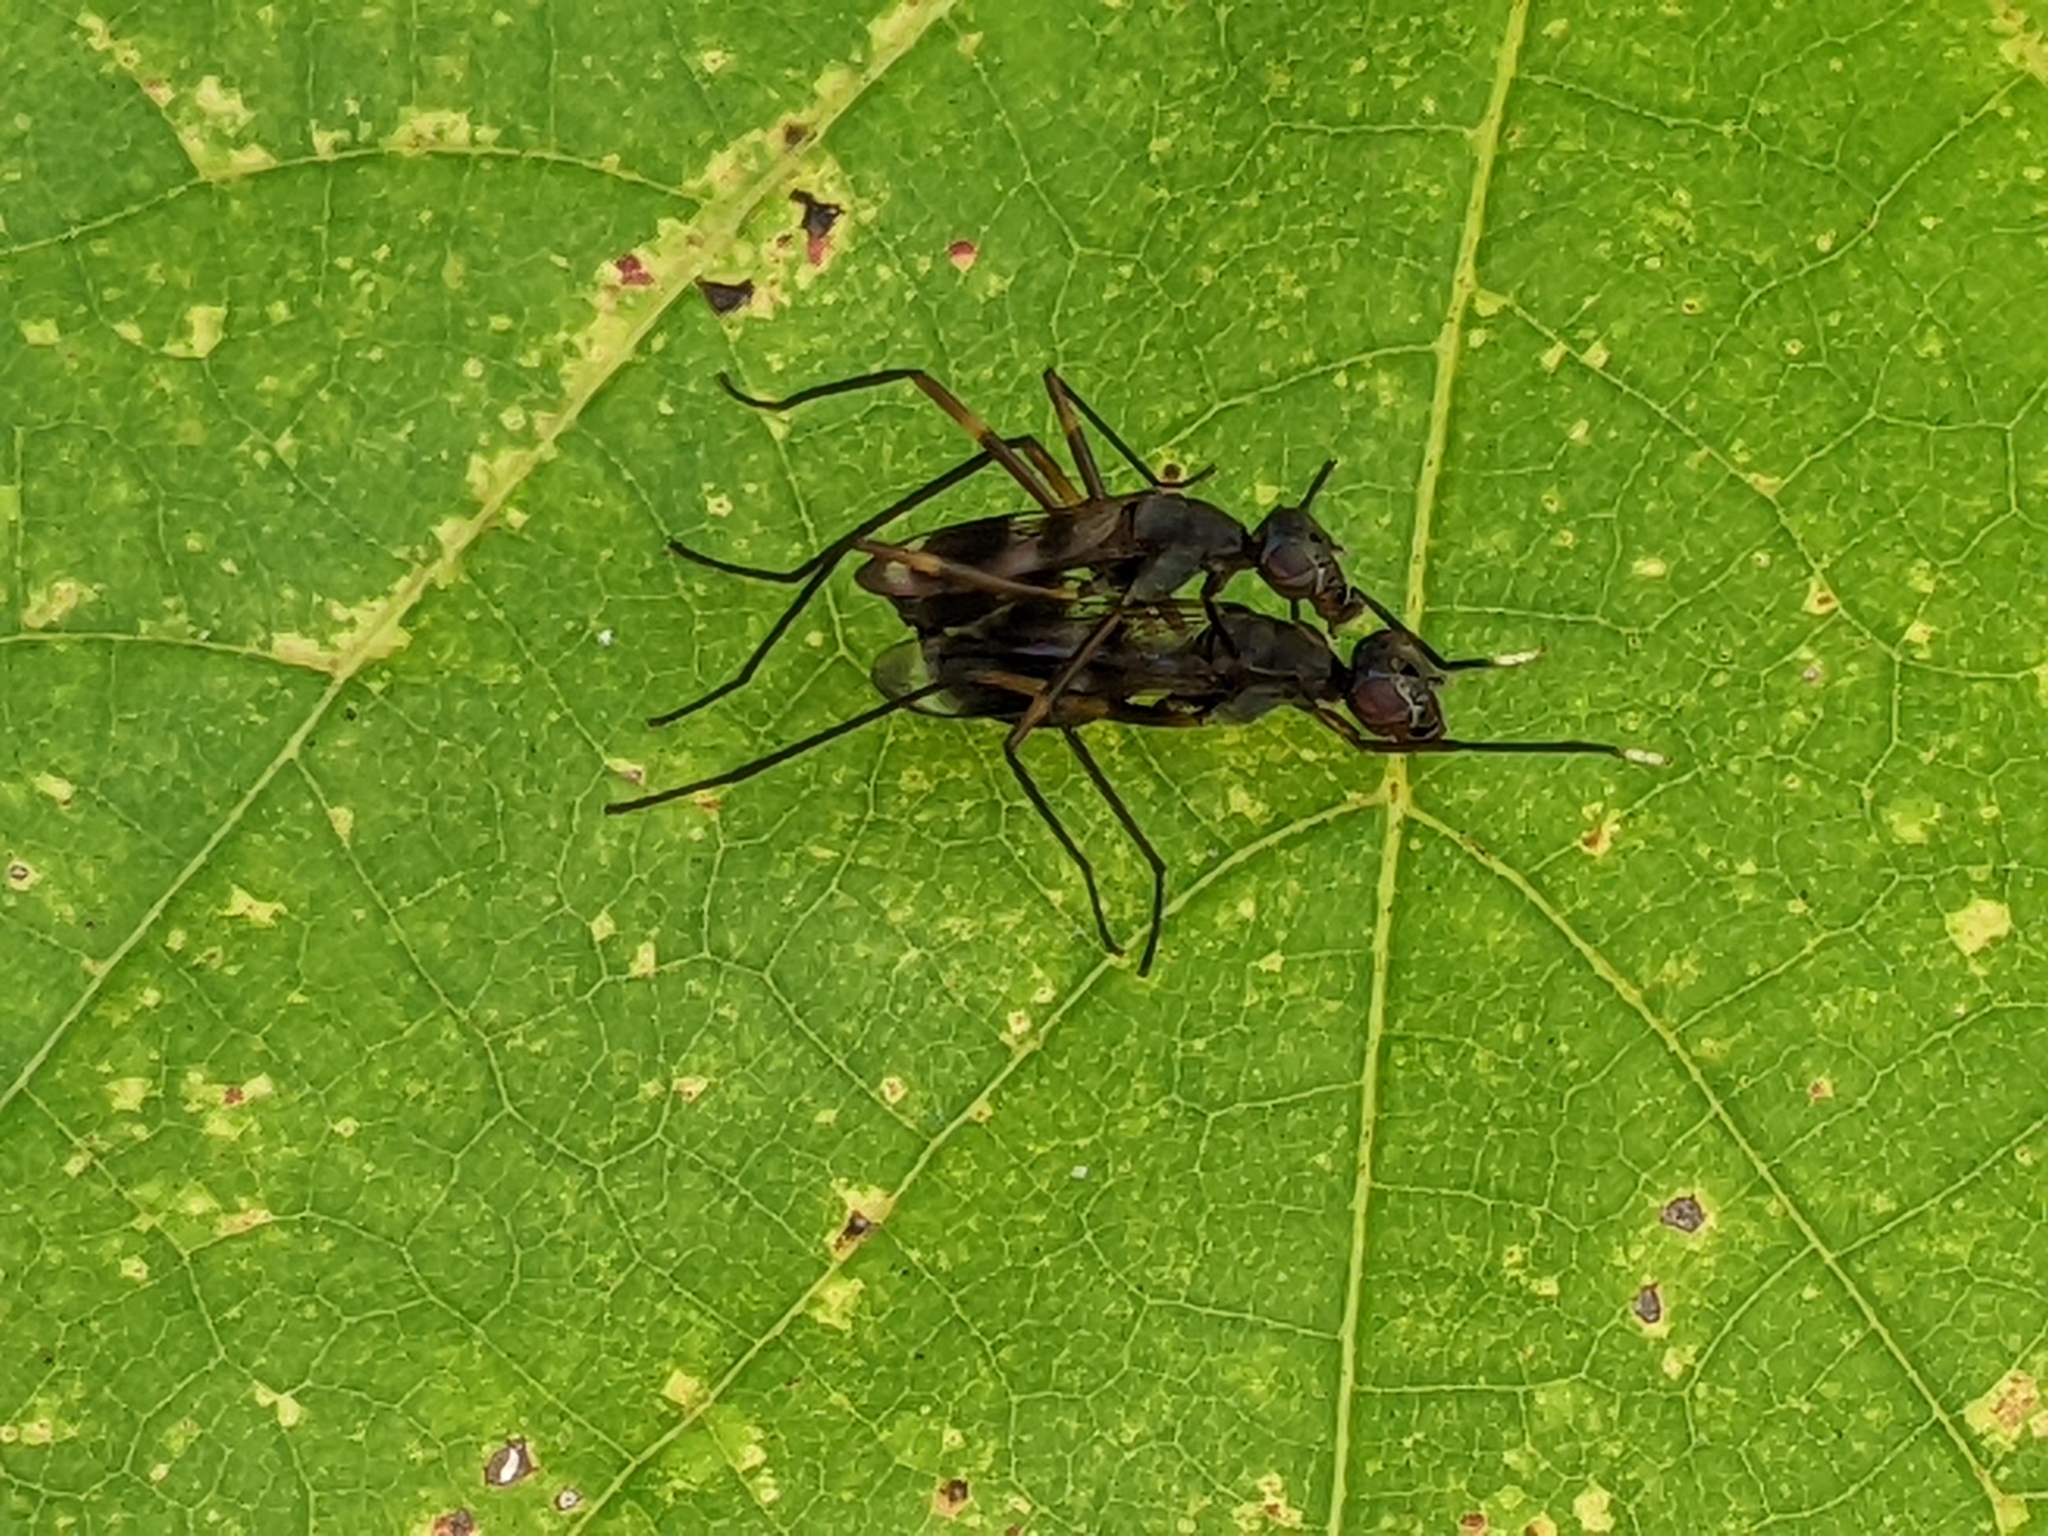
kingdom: Animalia
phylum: Arthropoda
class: Insecta
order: Diptera
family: Micropezidae
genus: Taeniaptera
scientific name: Taeniaptera trivittata
